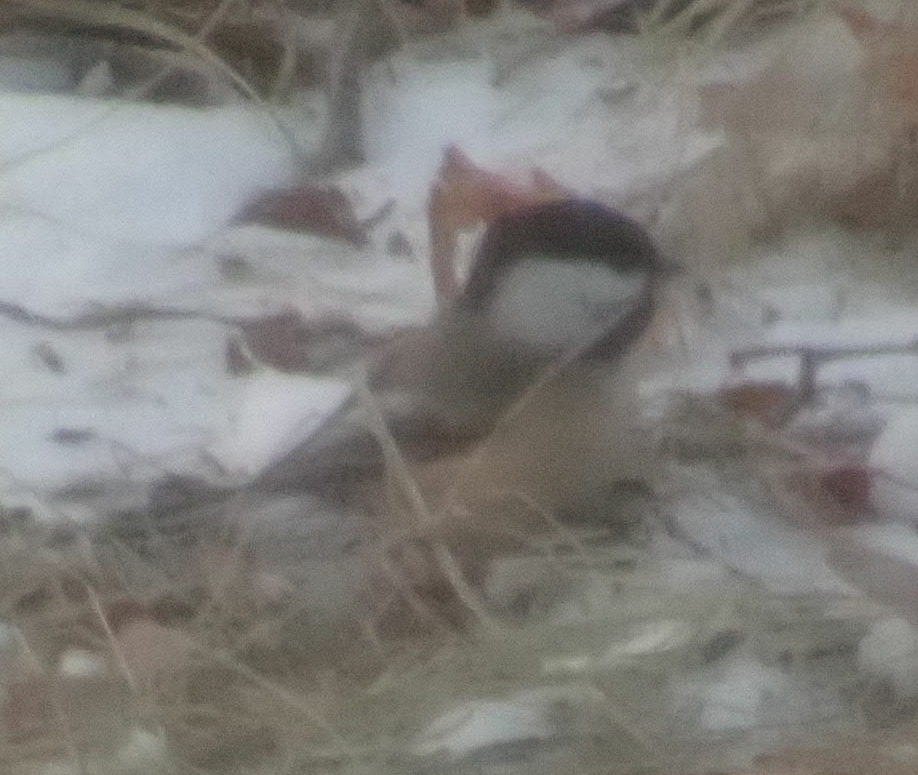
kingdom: Animalia
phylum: Chordata
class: Aves
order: Passeriformes
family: Paridae
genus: Poecile
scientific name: Poecile atricapillus
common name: Black-capped chickadee
